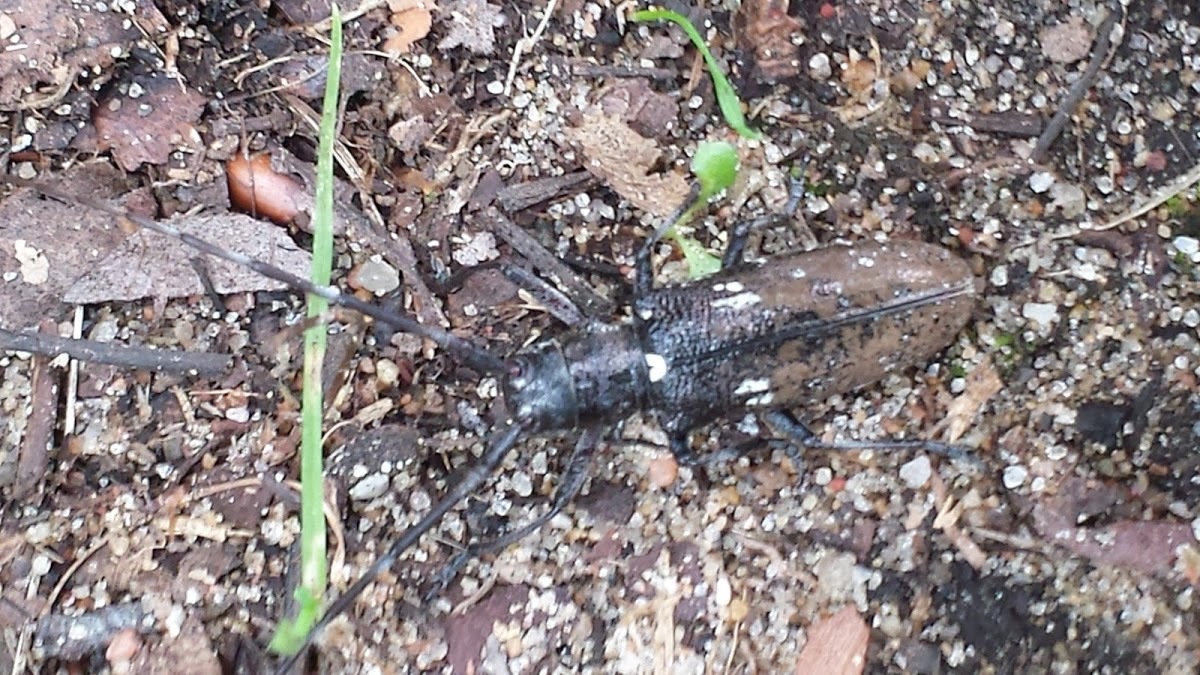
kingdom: Animalia
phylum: Arthropoda
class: Insecta
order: Coleoptera
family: Cerambycidae
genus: Monochamus
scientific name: Monochamus scutellatus
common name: White-spotted sawyer beetle
